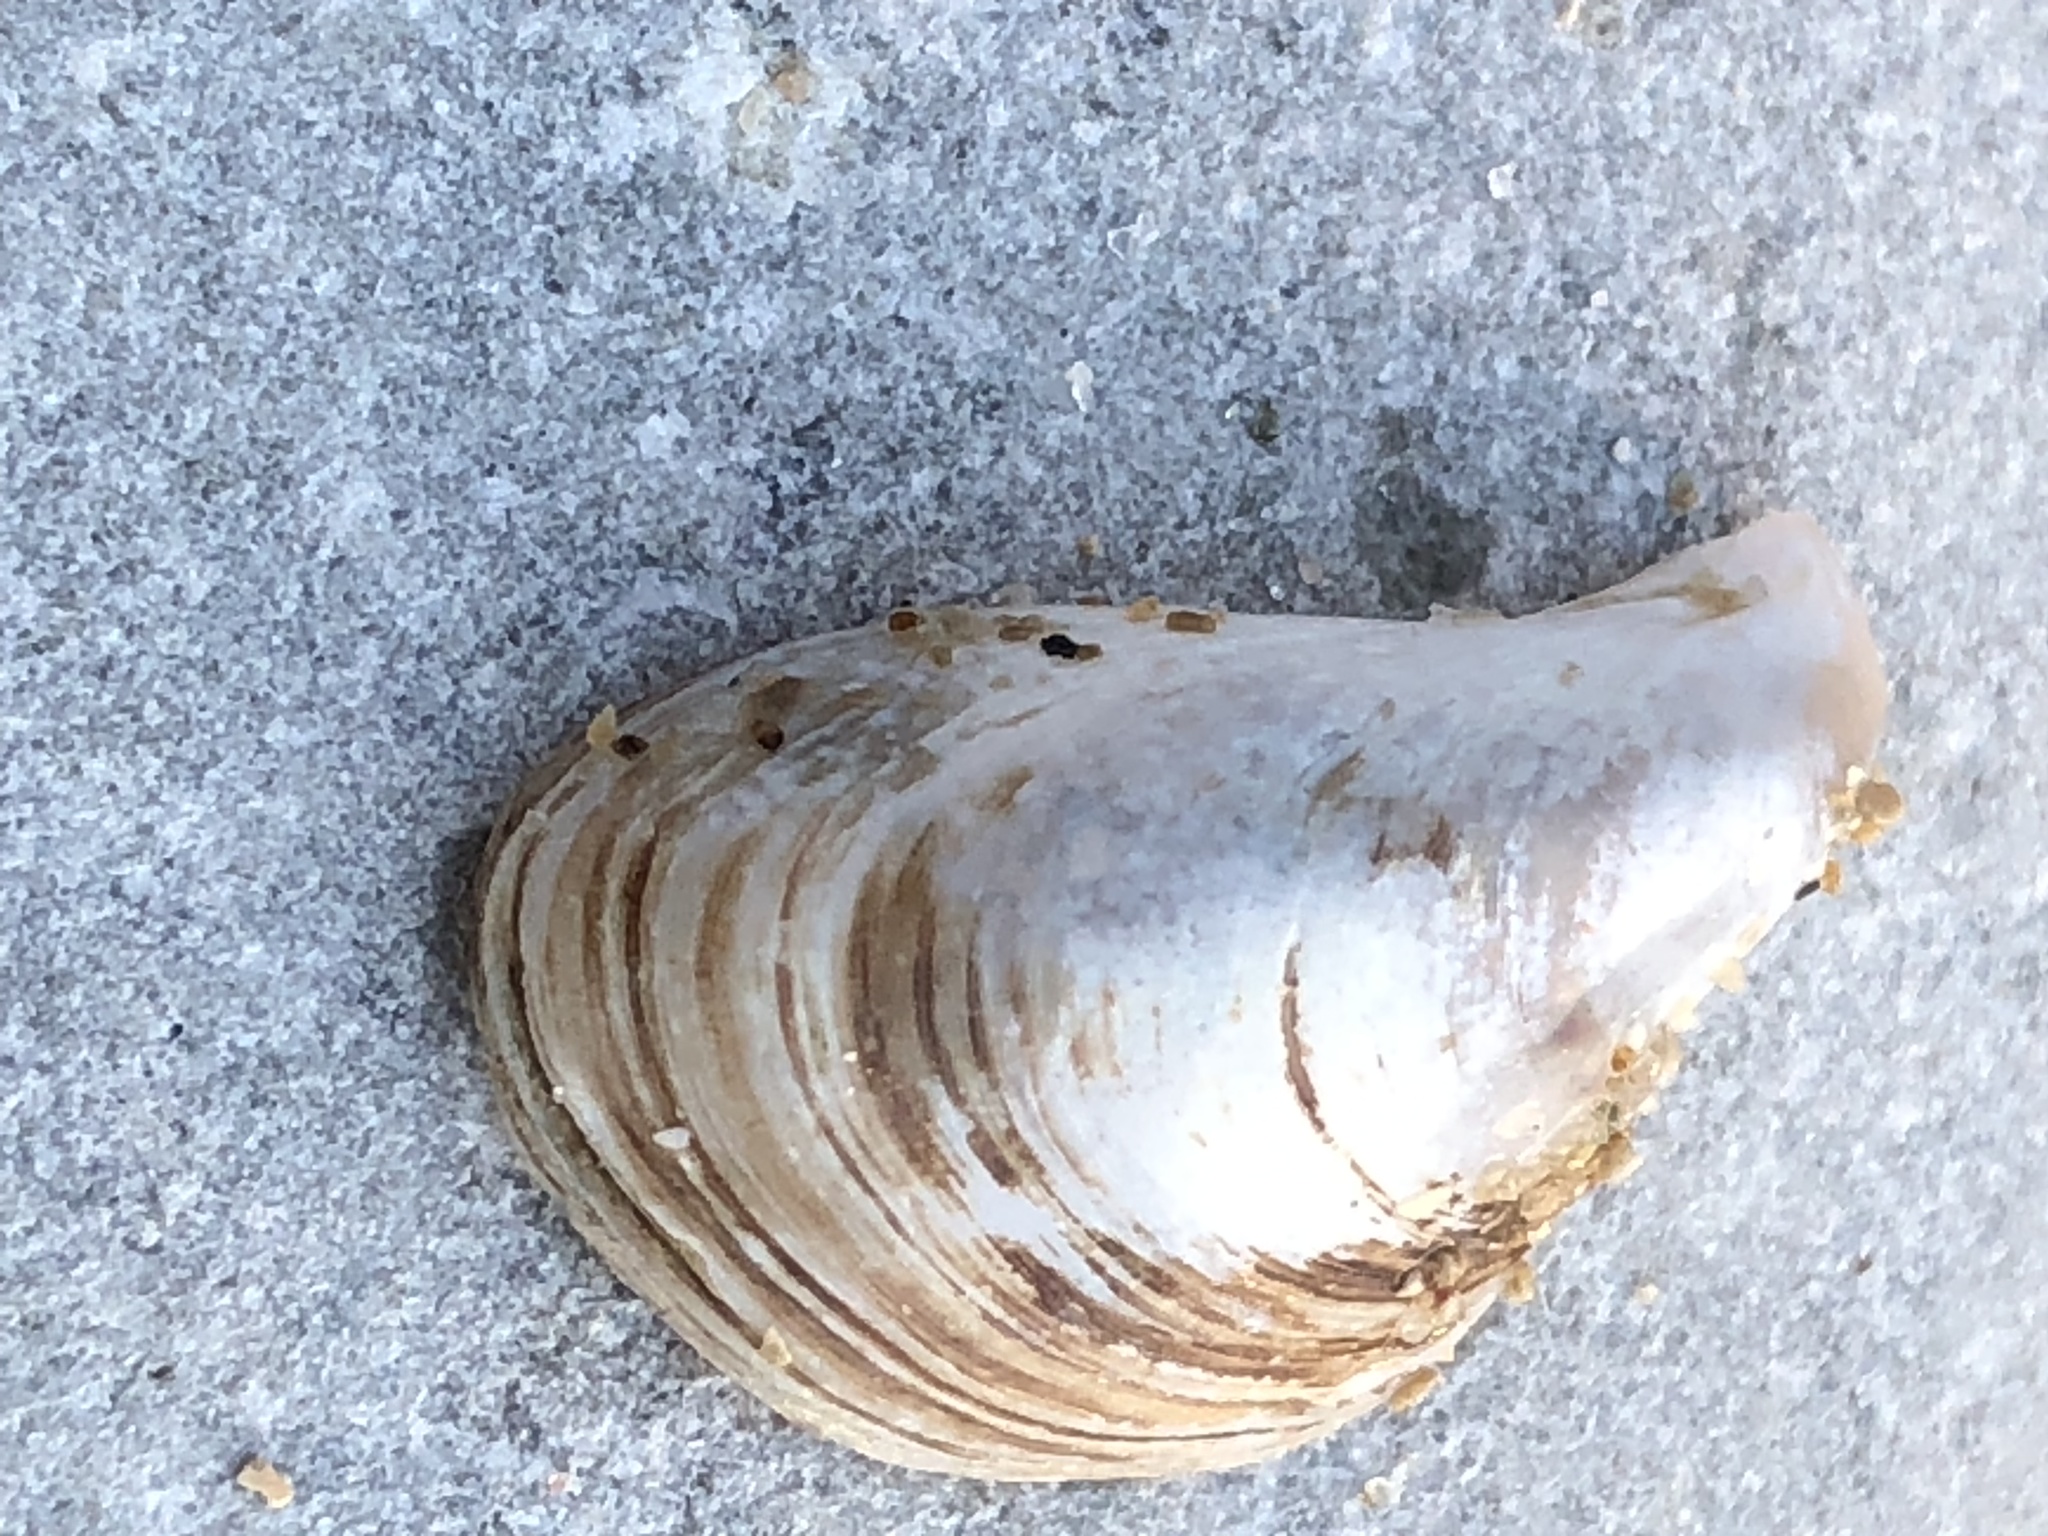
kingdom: Animalia
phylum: Mollusca
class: Bivalvia
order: Myida
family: Dreissenidae
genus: Dreissena
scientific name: Dreissena bugensis
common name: Quagga mussel
